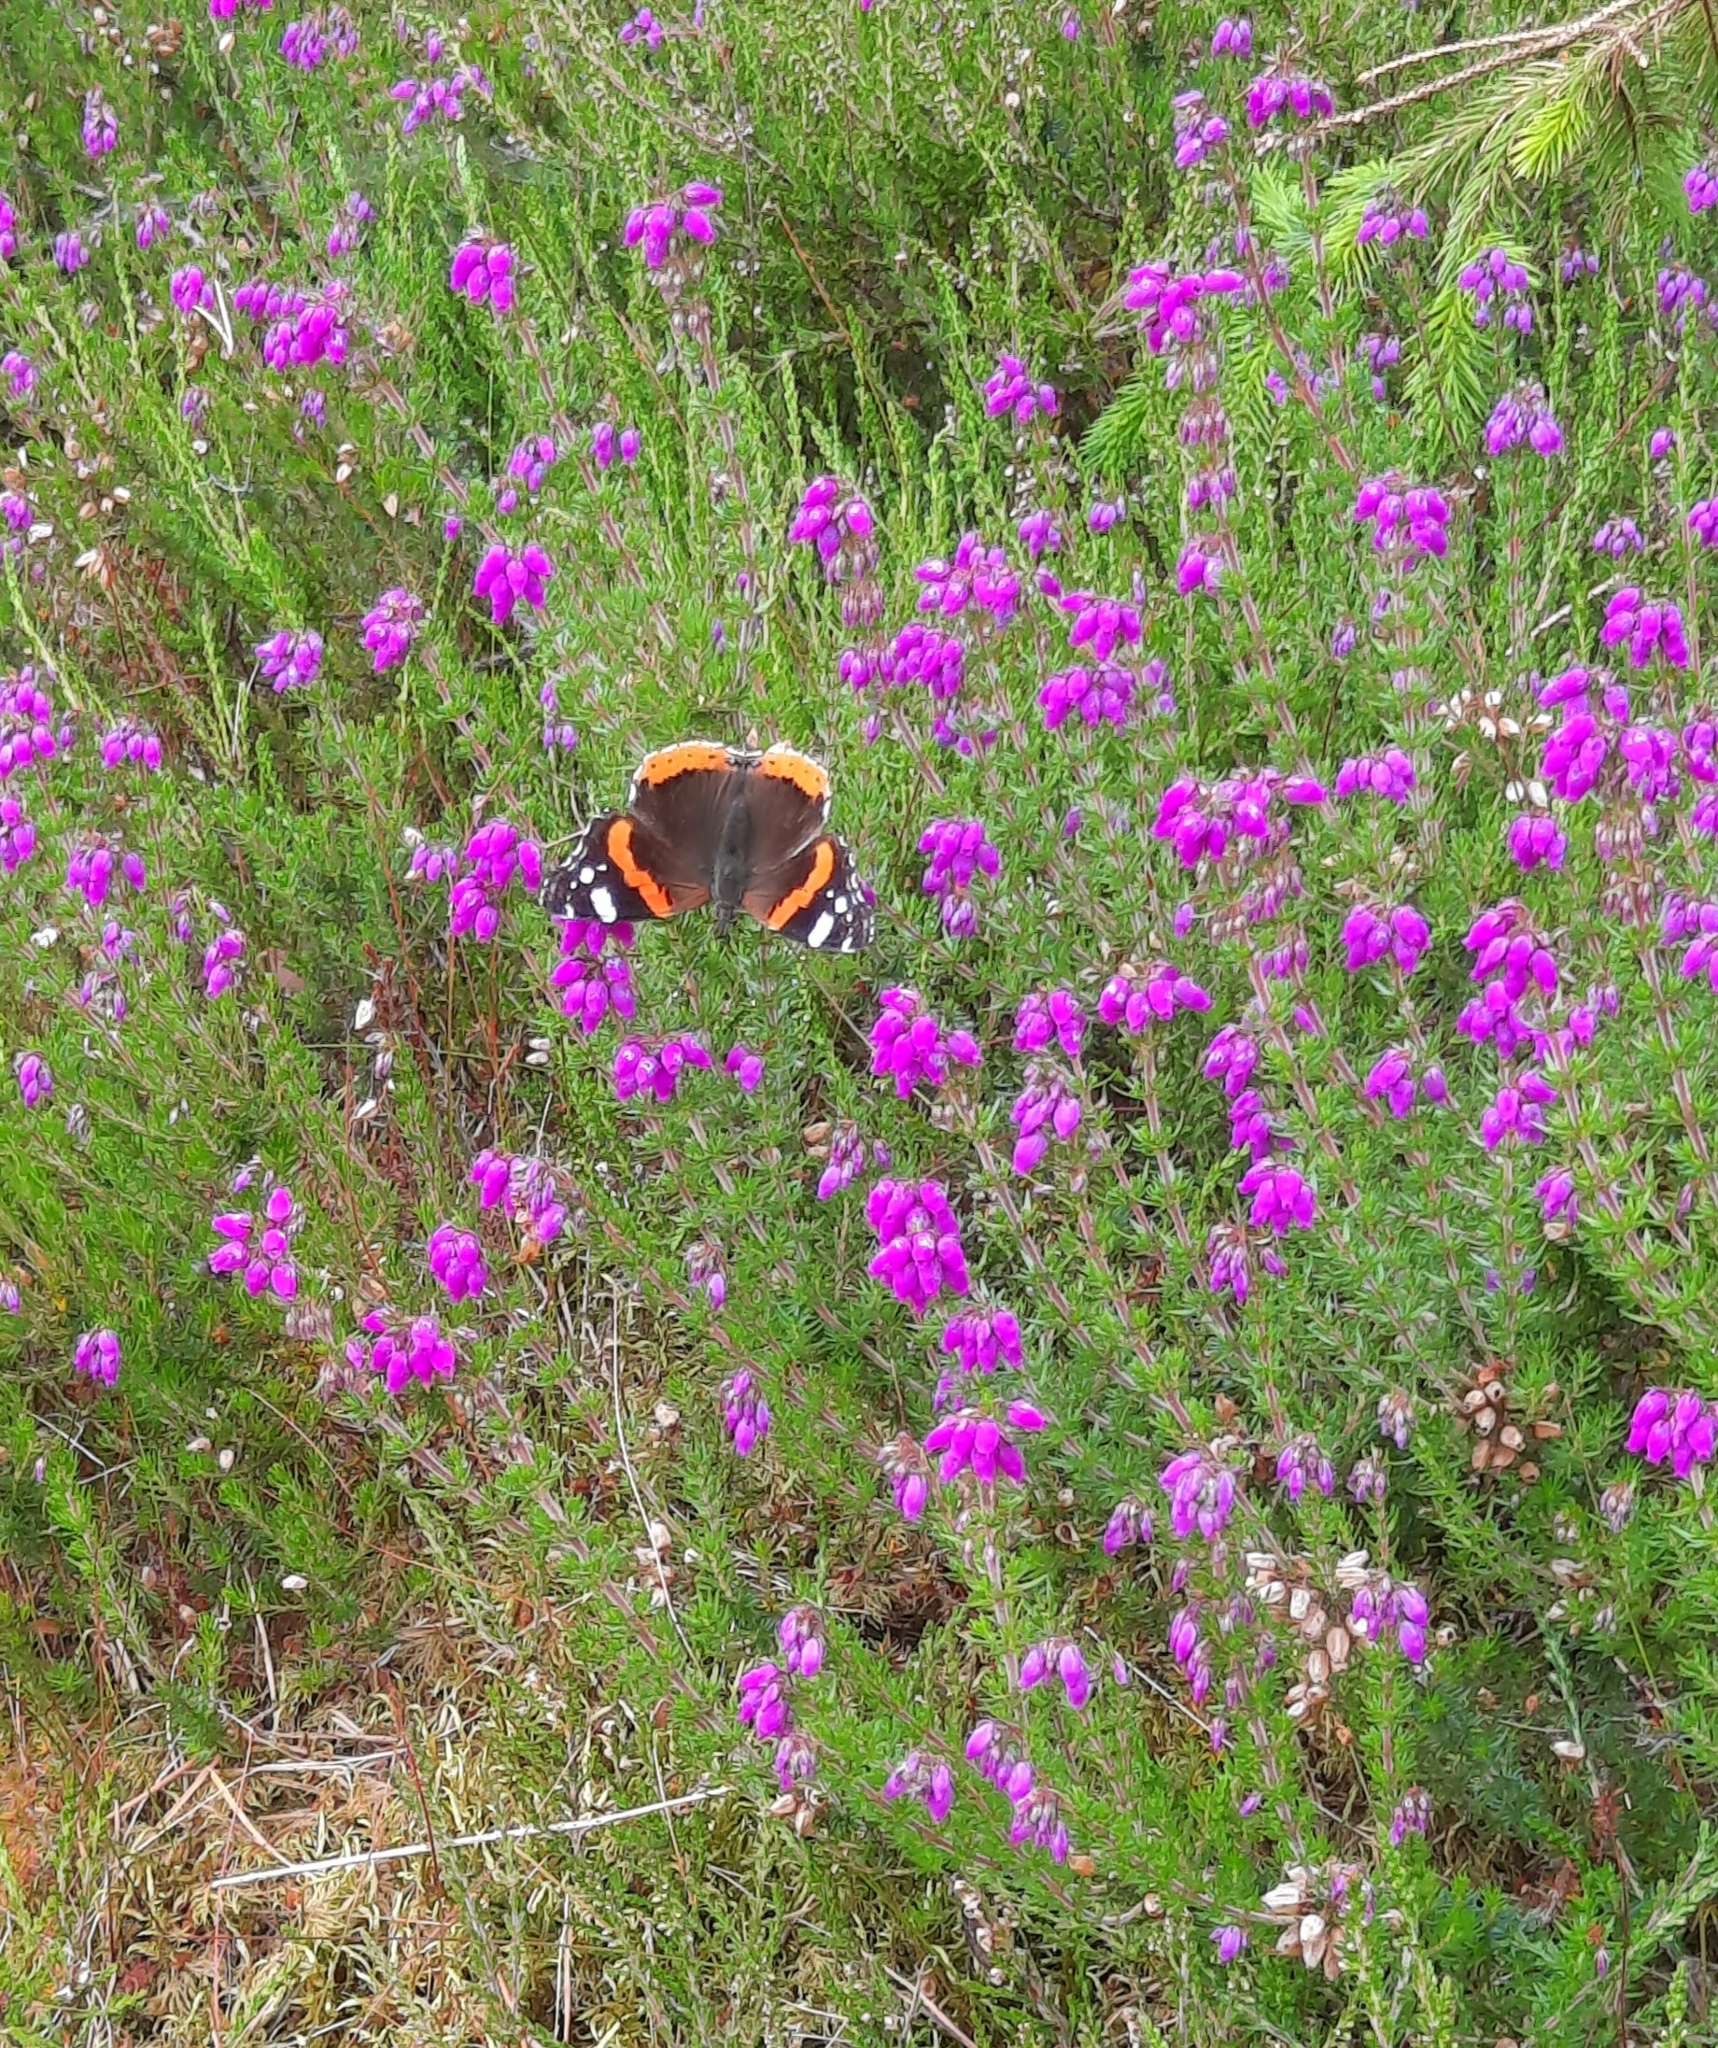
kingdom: Animalia
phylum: Arthropoda
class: Insecta
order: Lepidoptera
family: Nymphalidae
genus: Vanessa
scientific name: Vanessa atalanta
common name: Red admiral
